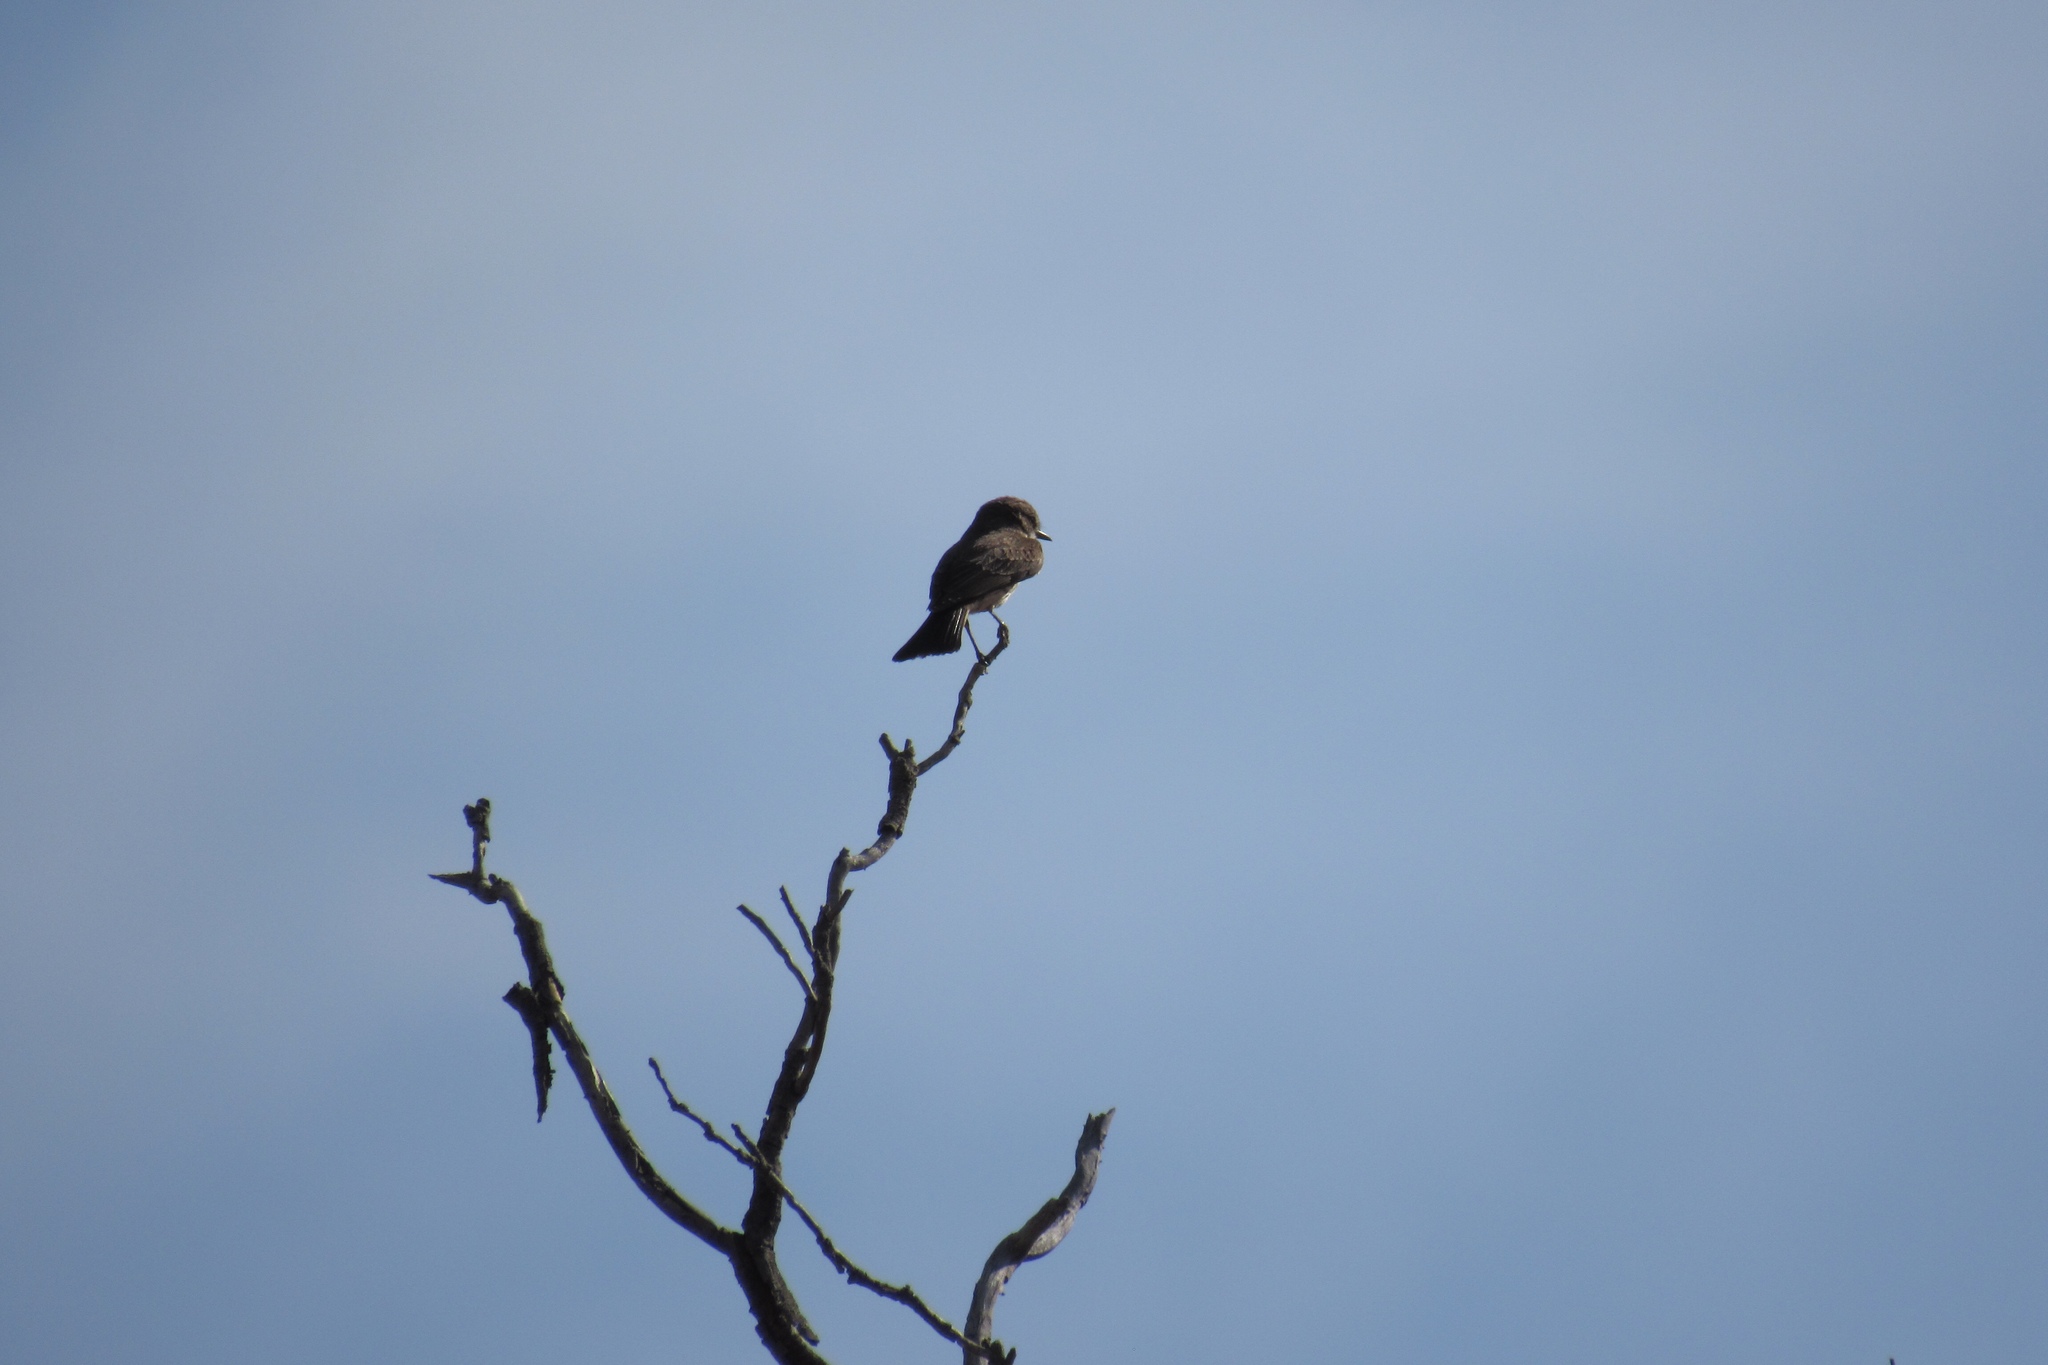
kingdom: Animalia
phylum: Chordata
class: Aves
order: Passeriformes
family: Tyrannidae
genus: Pyrocephalus
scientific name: Pyrocephalus rubinus
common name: Vermilion flycatcher
